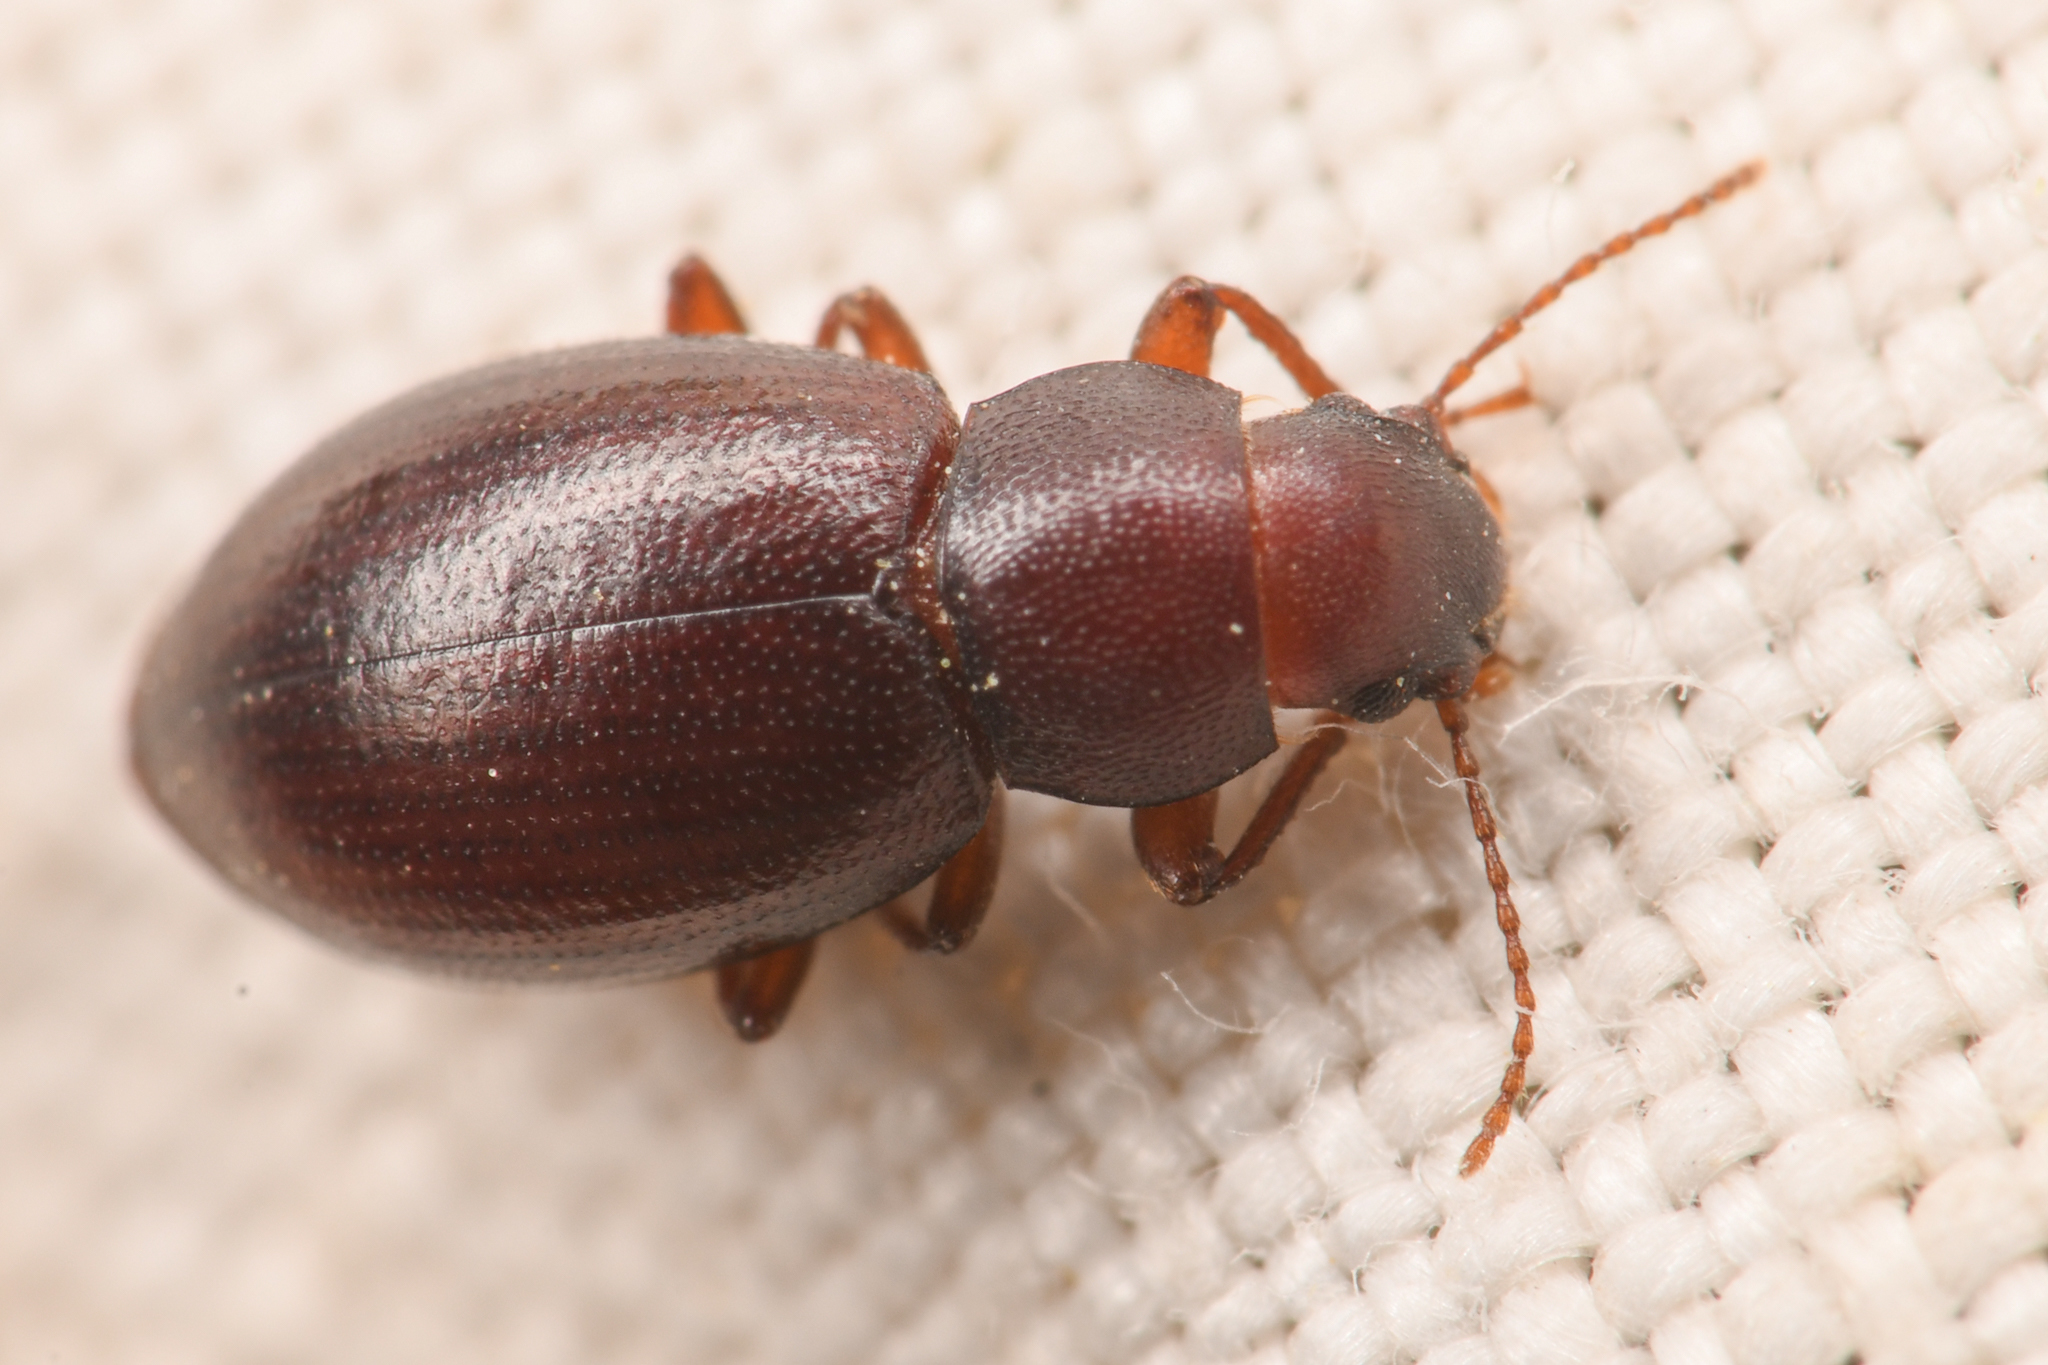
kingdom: Animalia
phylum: Arthropoda
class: Insecta
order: Coleoptera
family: Tenebrionidae
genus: Chilometopon
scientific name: Chilometopon microps
